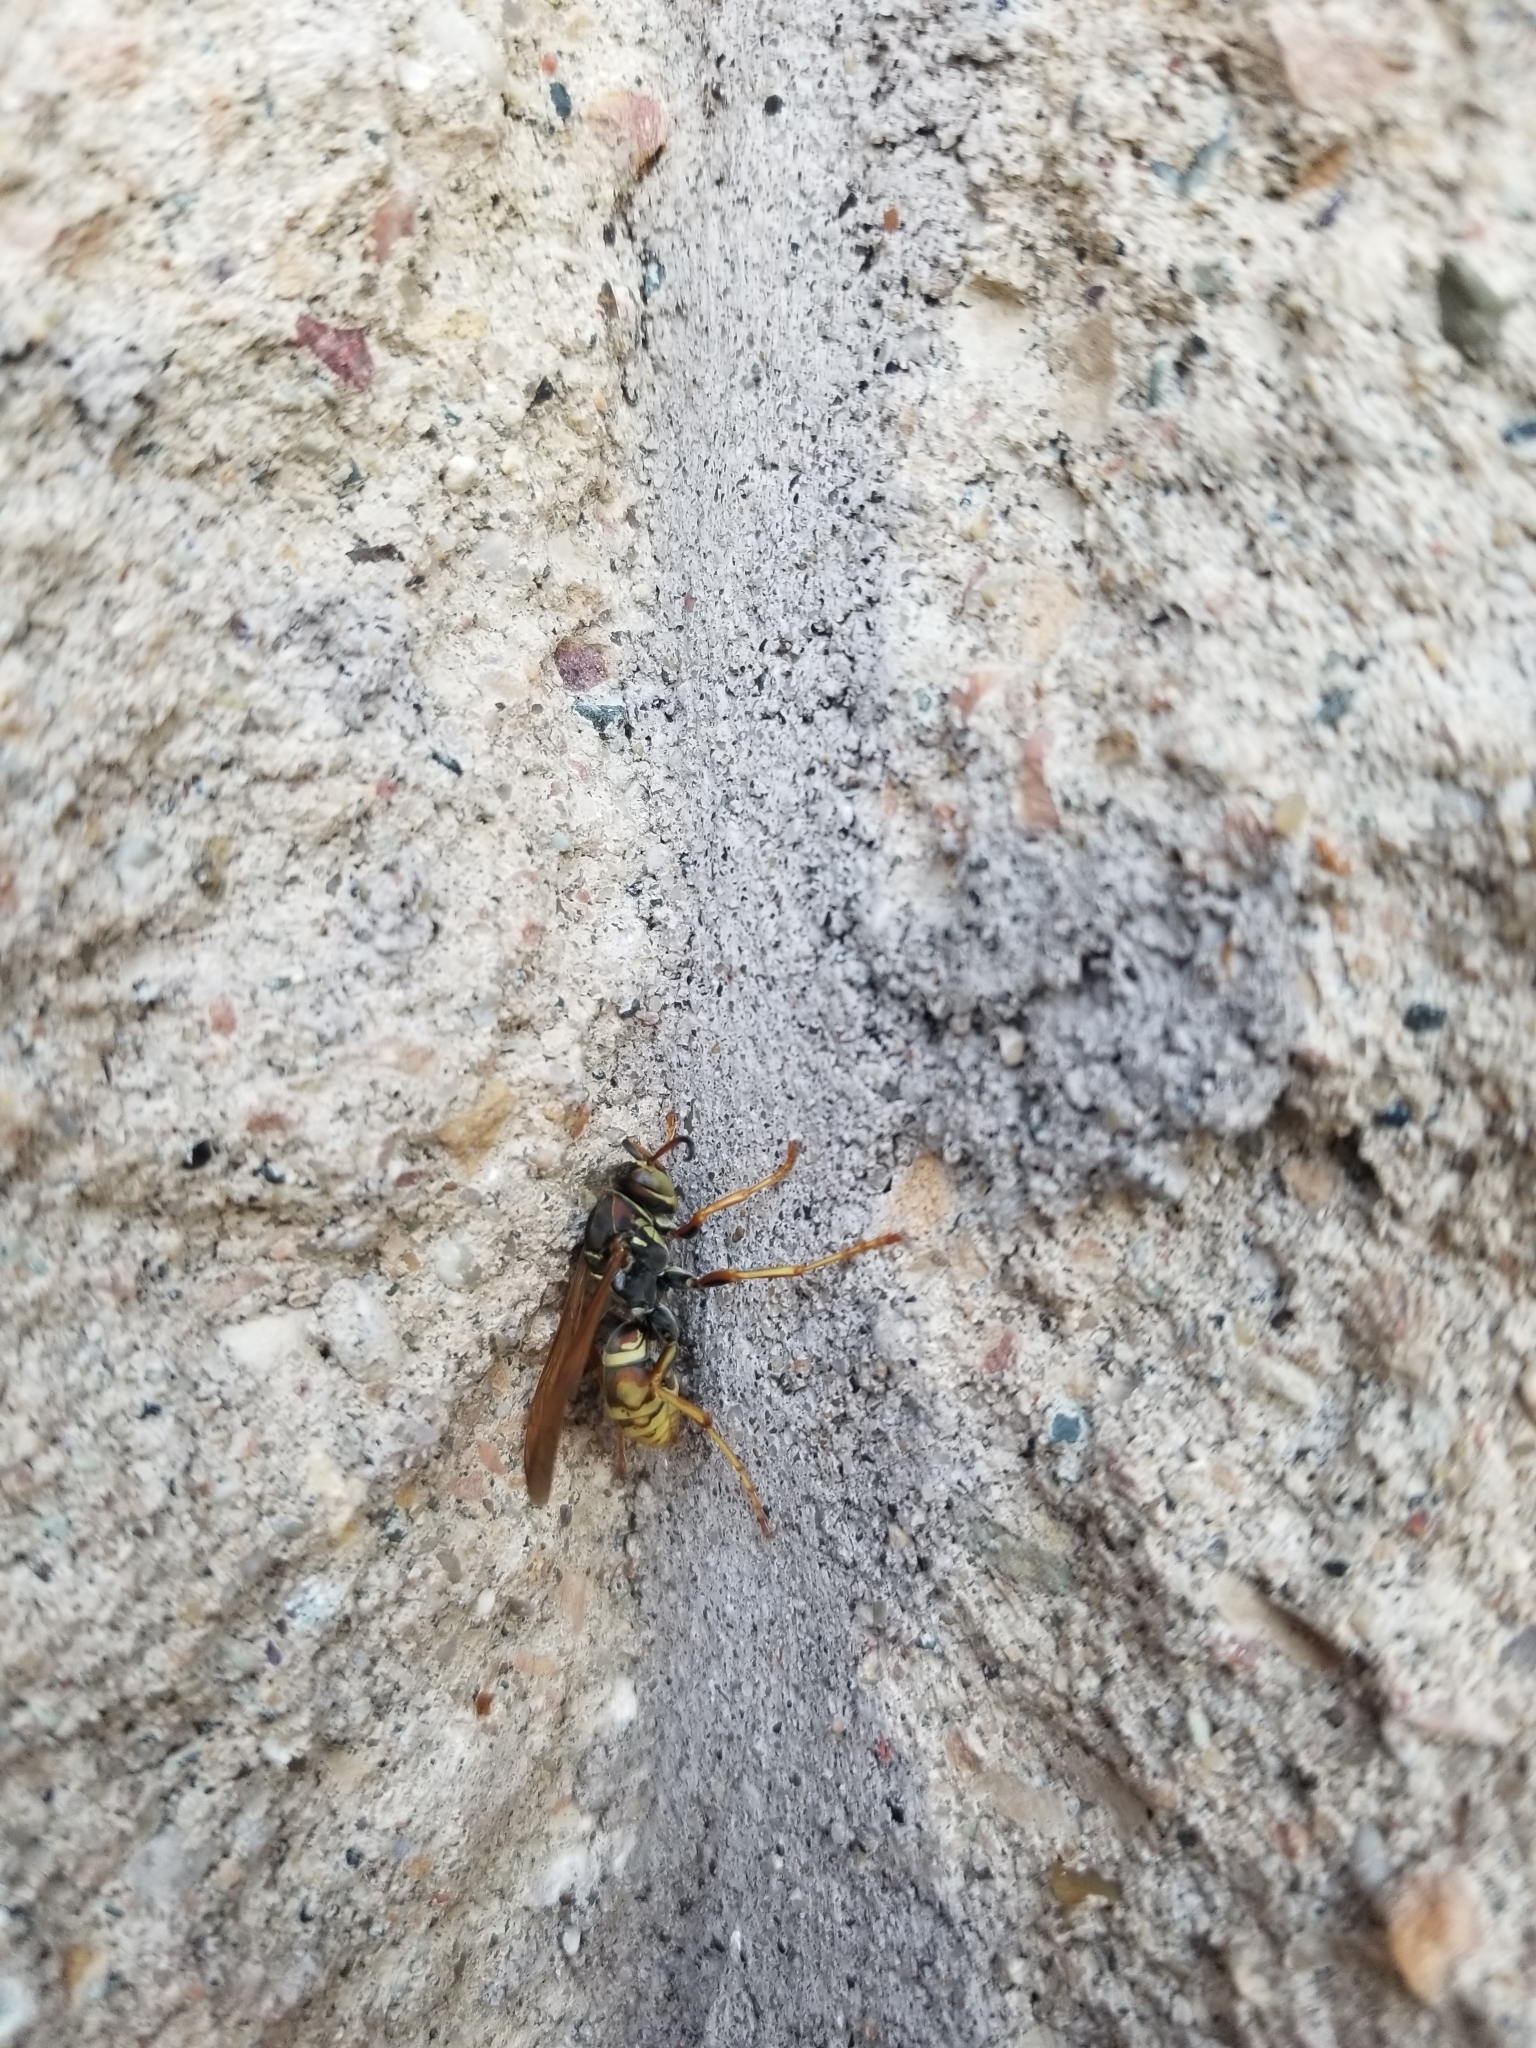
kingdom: Animalia
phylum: Arthropoda
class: Insecta
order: Hymenoptera
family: Eumenidae
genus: Polistes
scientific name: Polistes fuscatus
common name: Dark paper wasp
